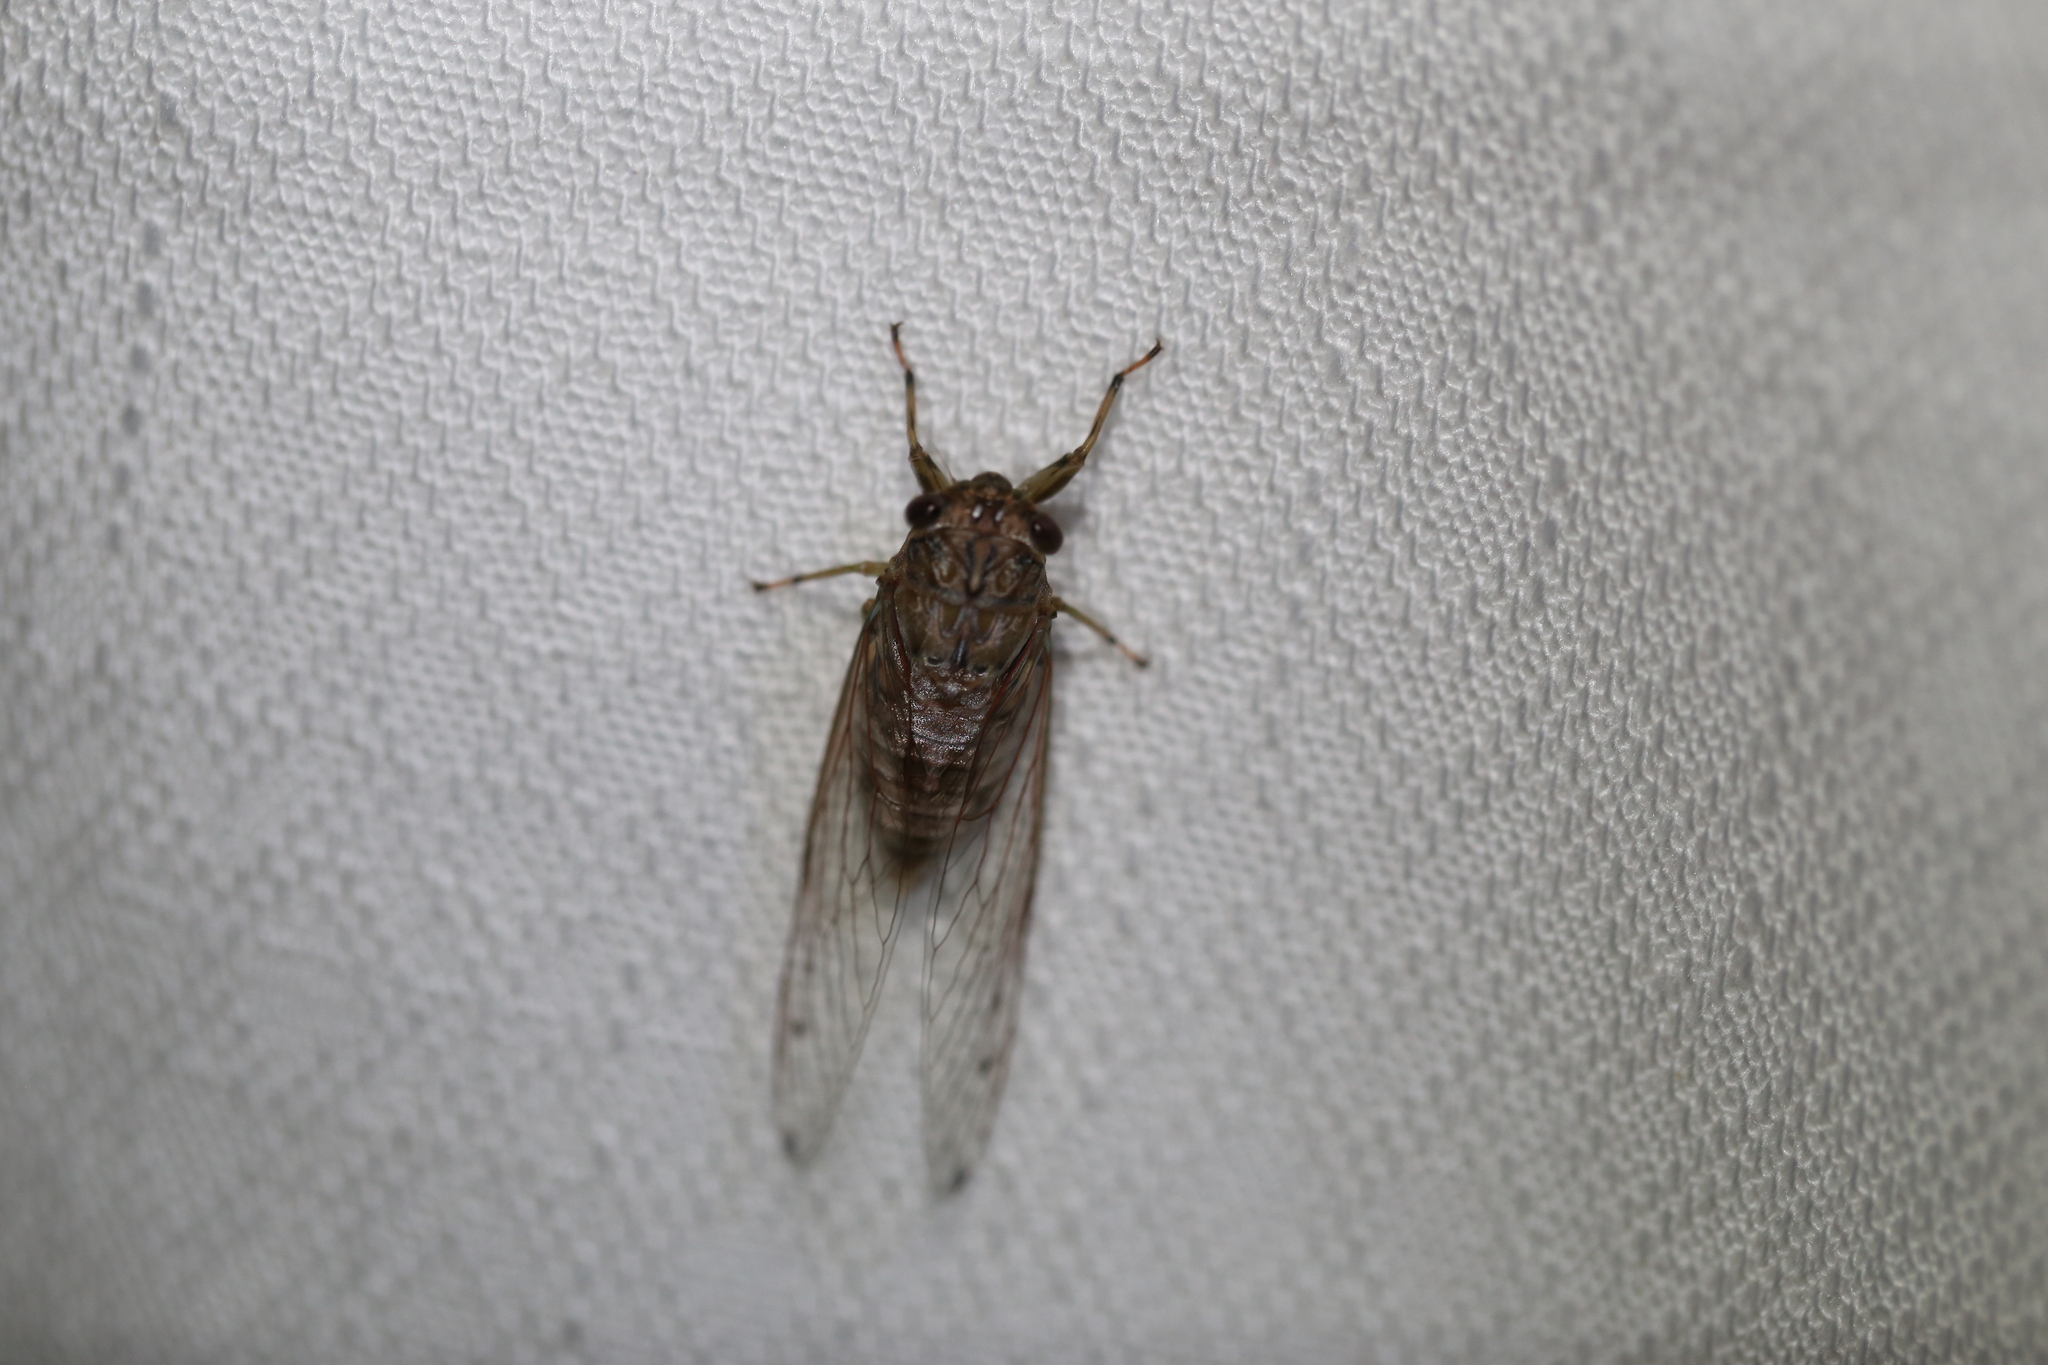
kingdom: Animalia
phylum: Arthropoda
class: Insecta
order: Hemiptera
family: Cicadidae
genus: Tamasa
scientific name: Tamasa tristigma
